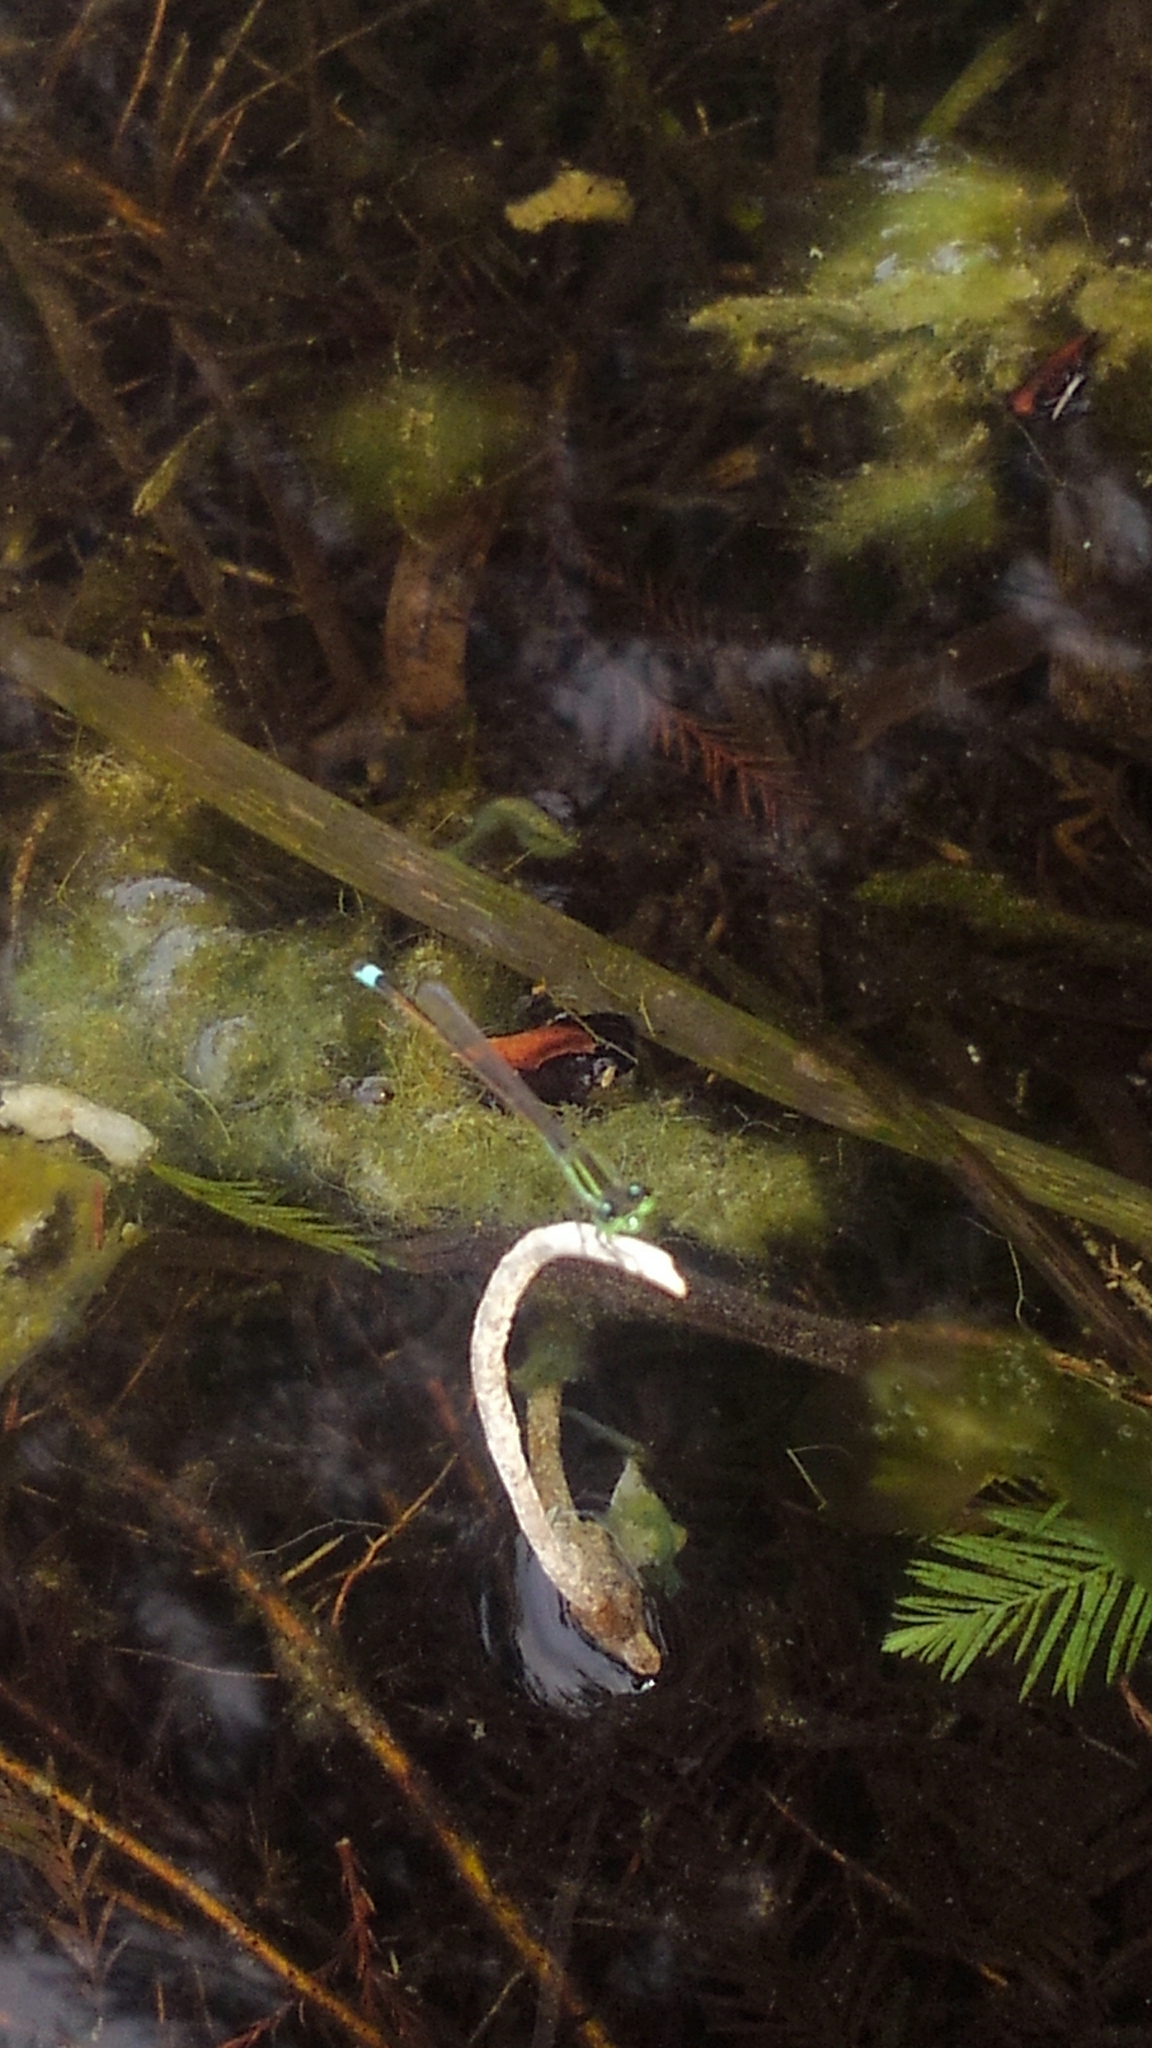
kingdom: Animalia
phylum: Arthropoda
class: Insecta
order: Odonata
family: Coenagrionidae
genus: Ischnura
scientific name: Ischnura ramburii
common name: Rambur's forktail
